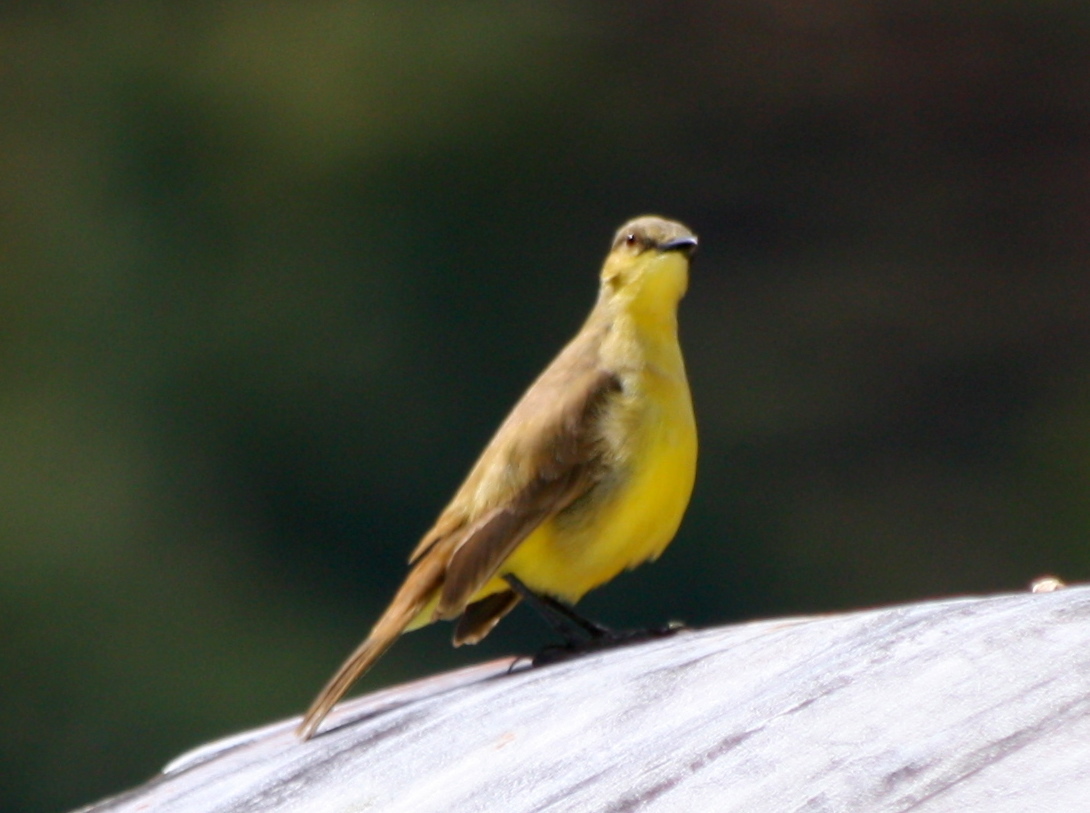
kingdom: Animalia
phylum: Chordata
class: Aves
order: Passeriformes
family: Tyrannidae
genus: Machetornis
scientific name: Machetornis rixosa
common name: Cattle tyrant
